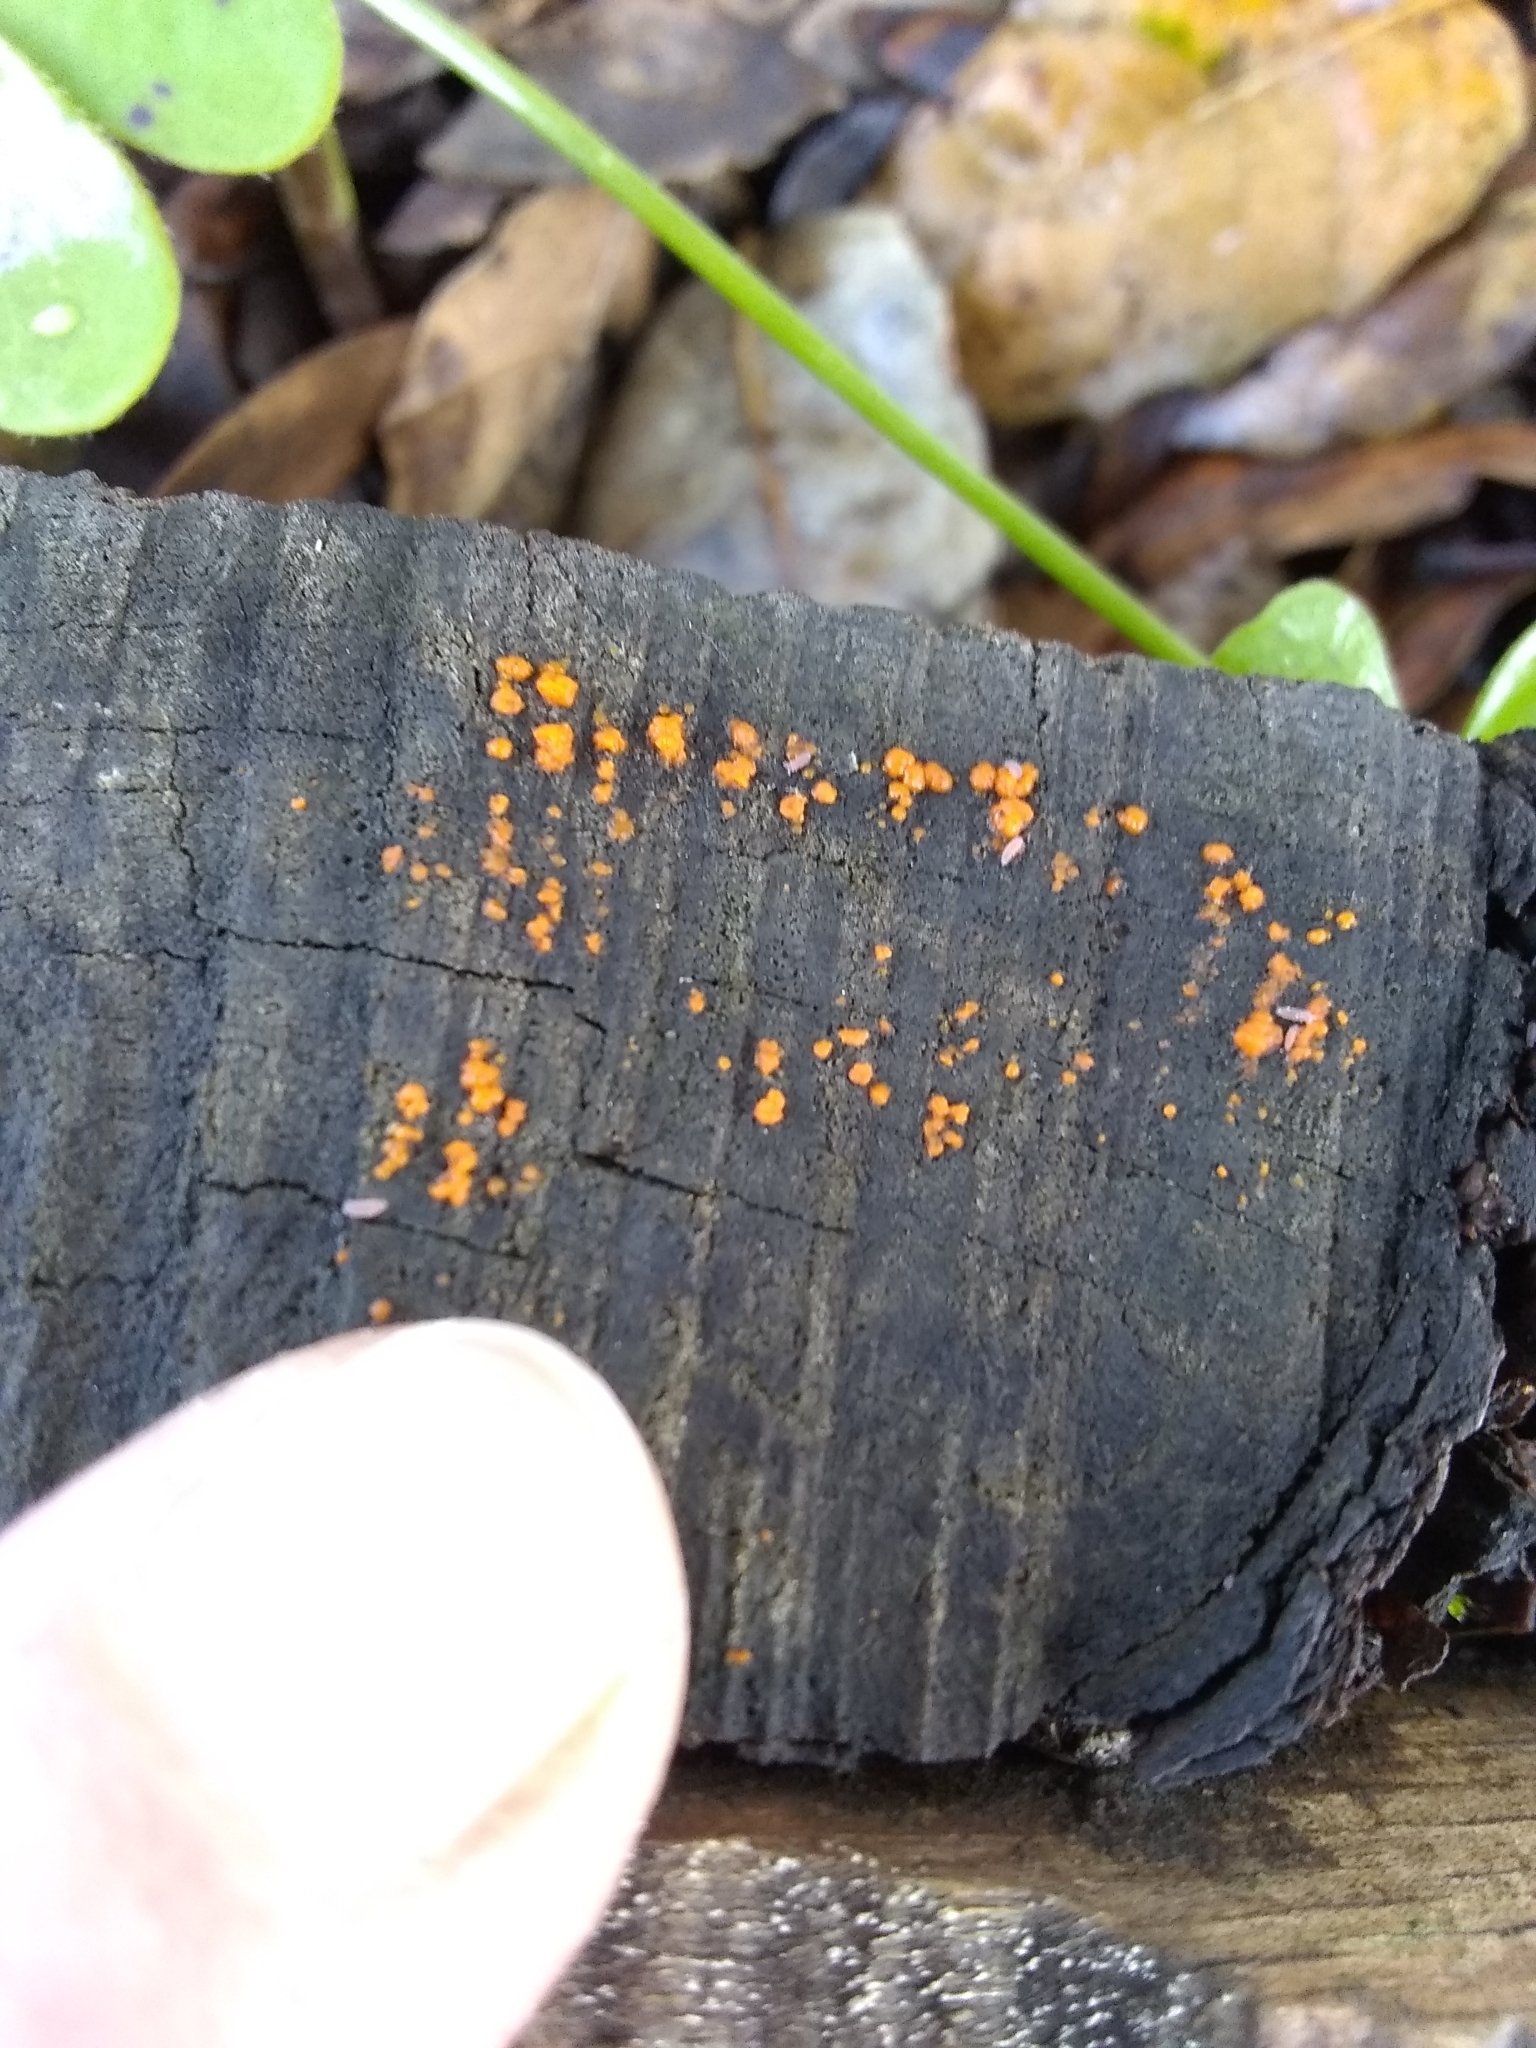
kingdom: Fungi
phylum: Basidiomycota
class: Dacrymycetes
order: Dacrymycetales
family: Dacrymycetaceae
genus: Dacrymyces
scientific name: Dacrymyces stillatus
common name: Common jelly spot
